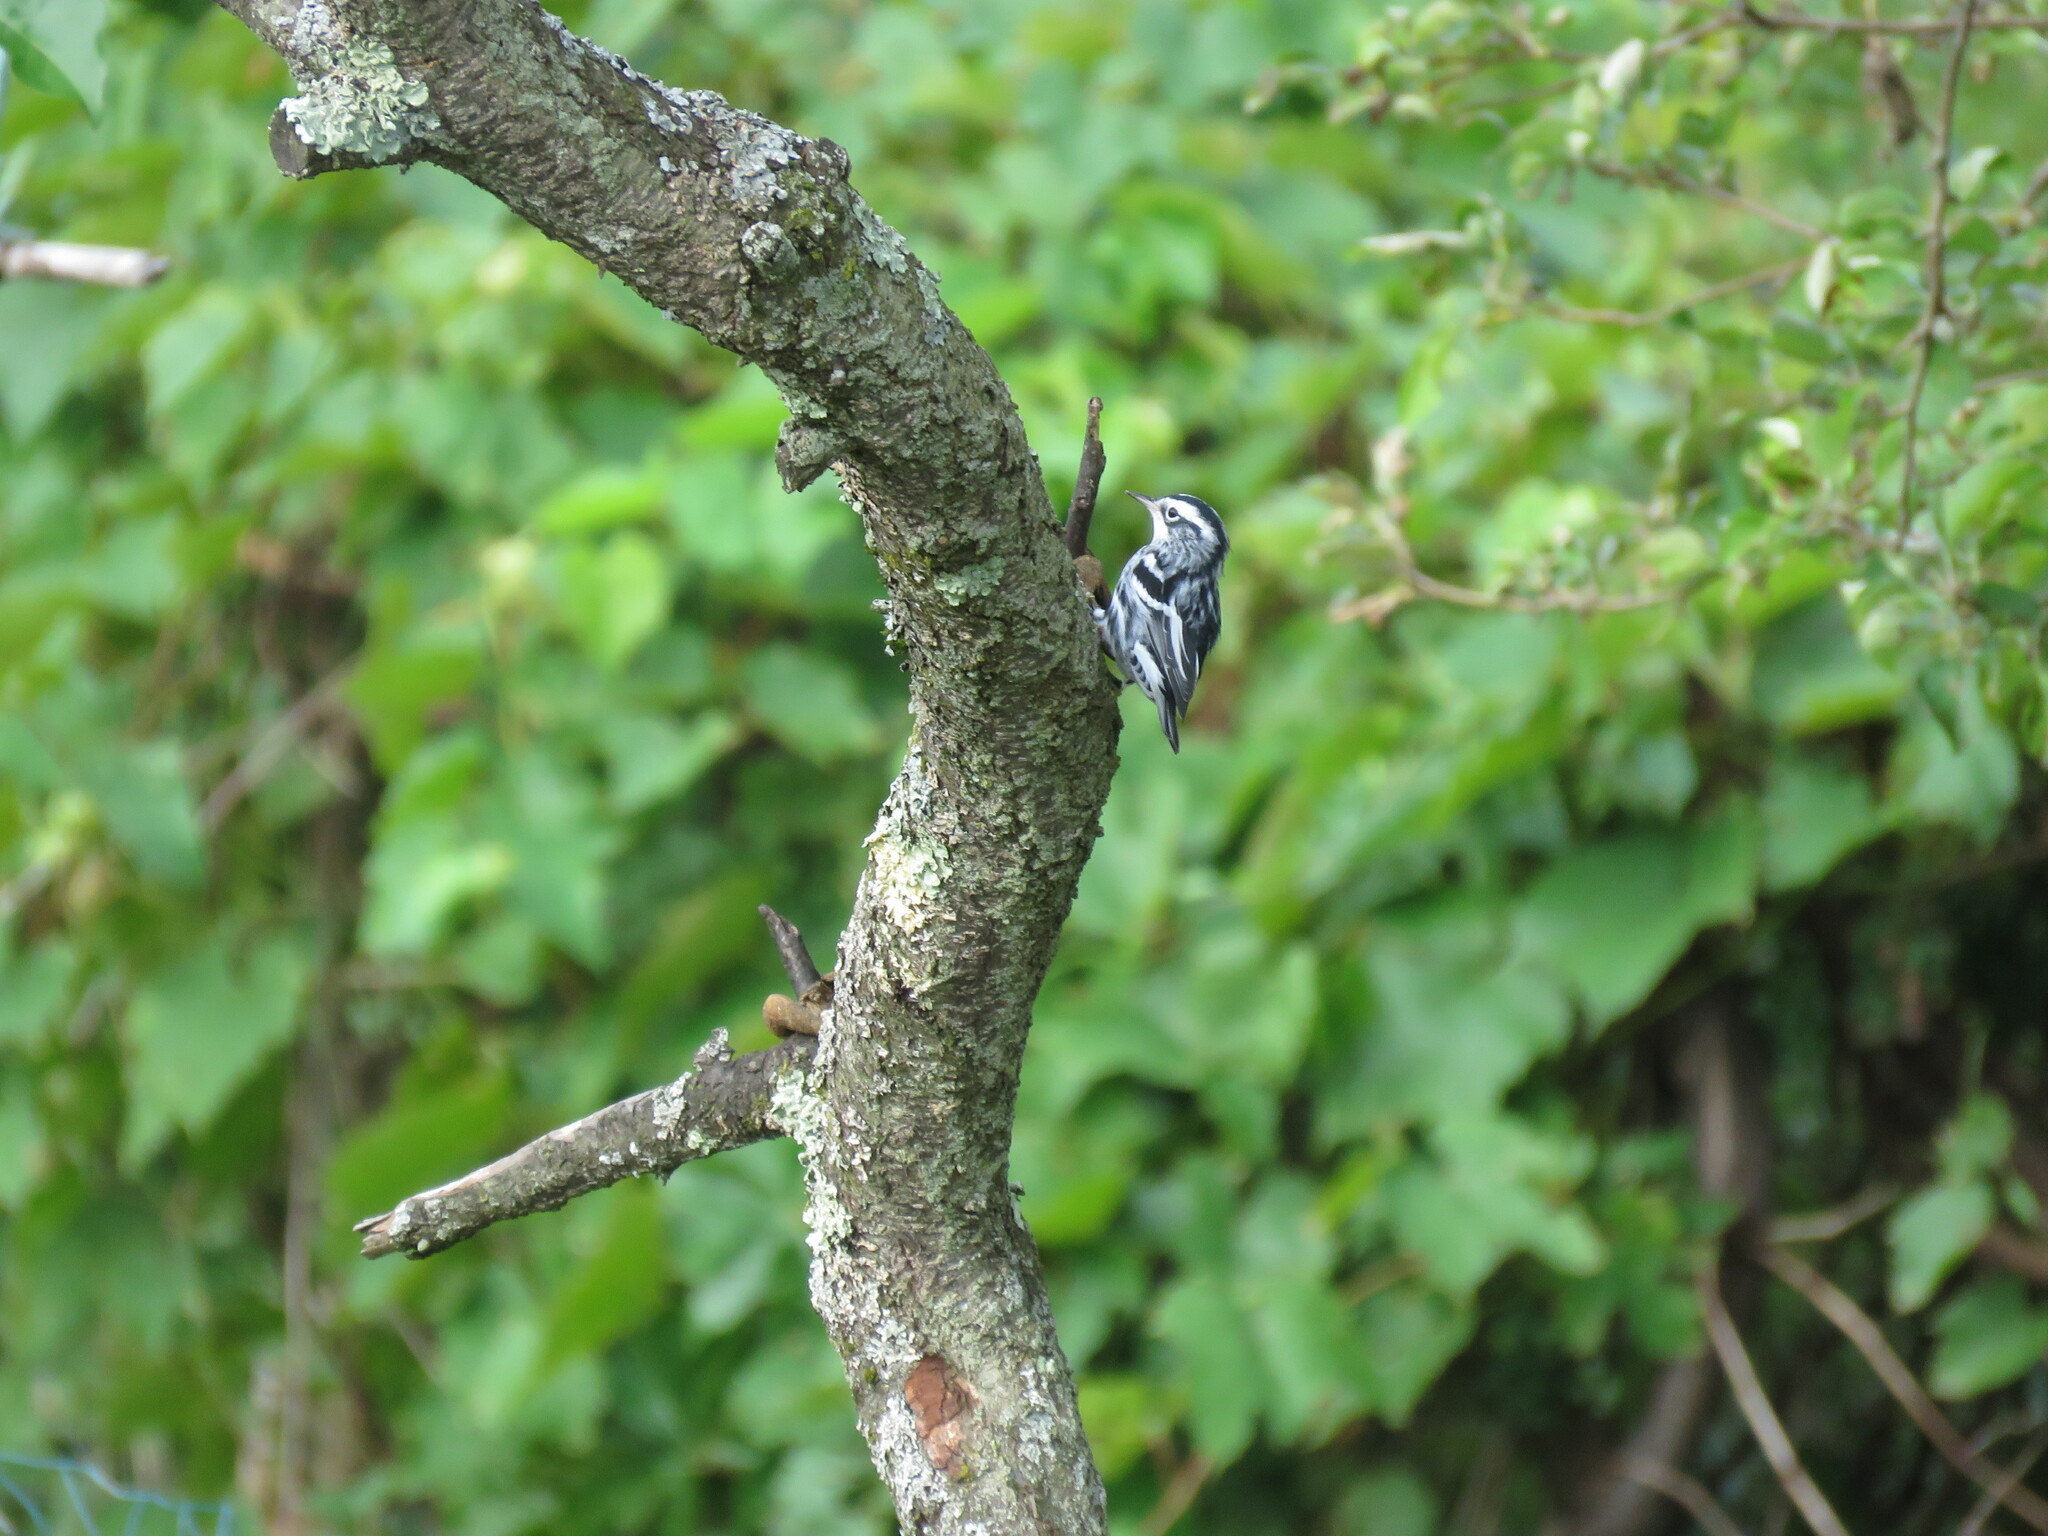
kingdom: Animalia
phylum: Chordata
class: Aves
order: Passeriformes
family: Parulidae
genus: Mniotilta
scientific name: Mniotilta varia
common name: Black-and-white warbler
